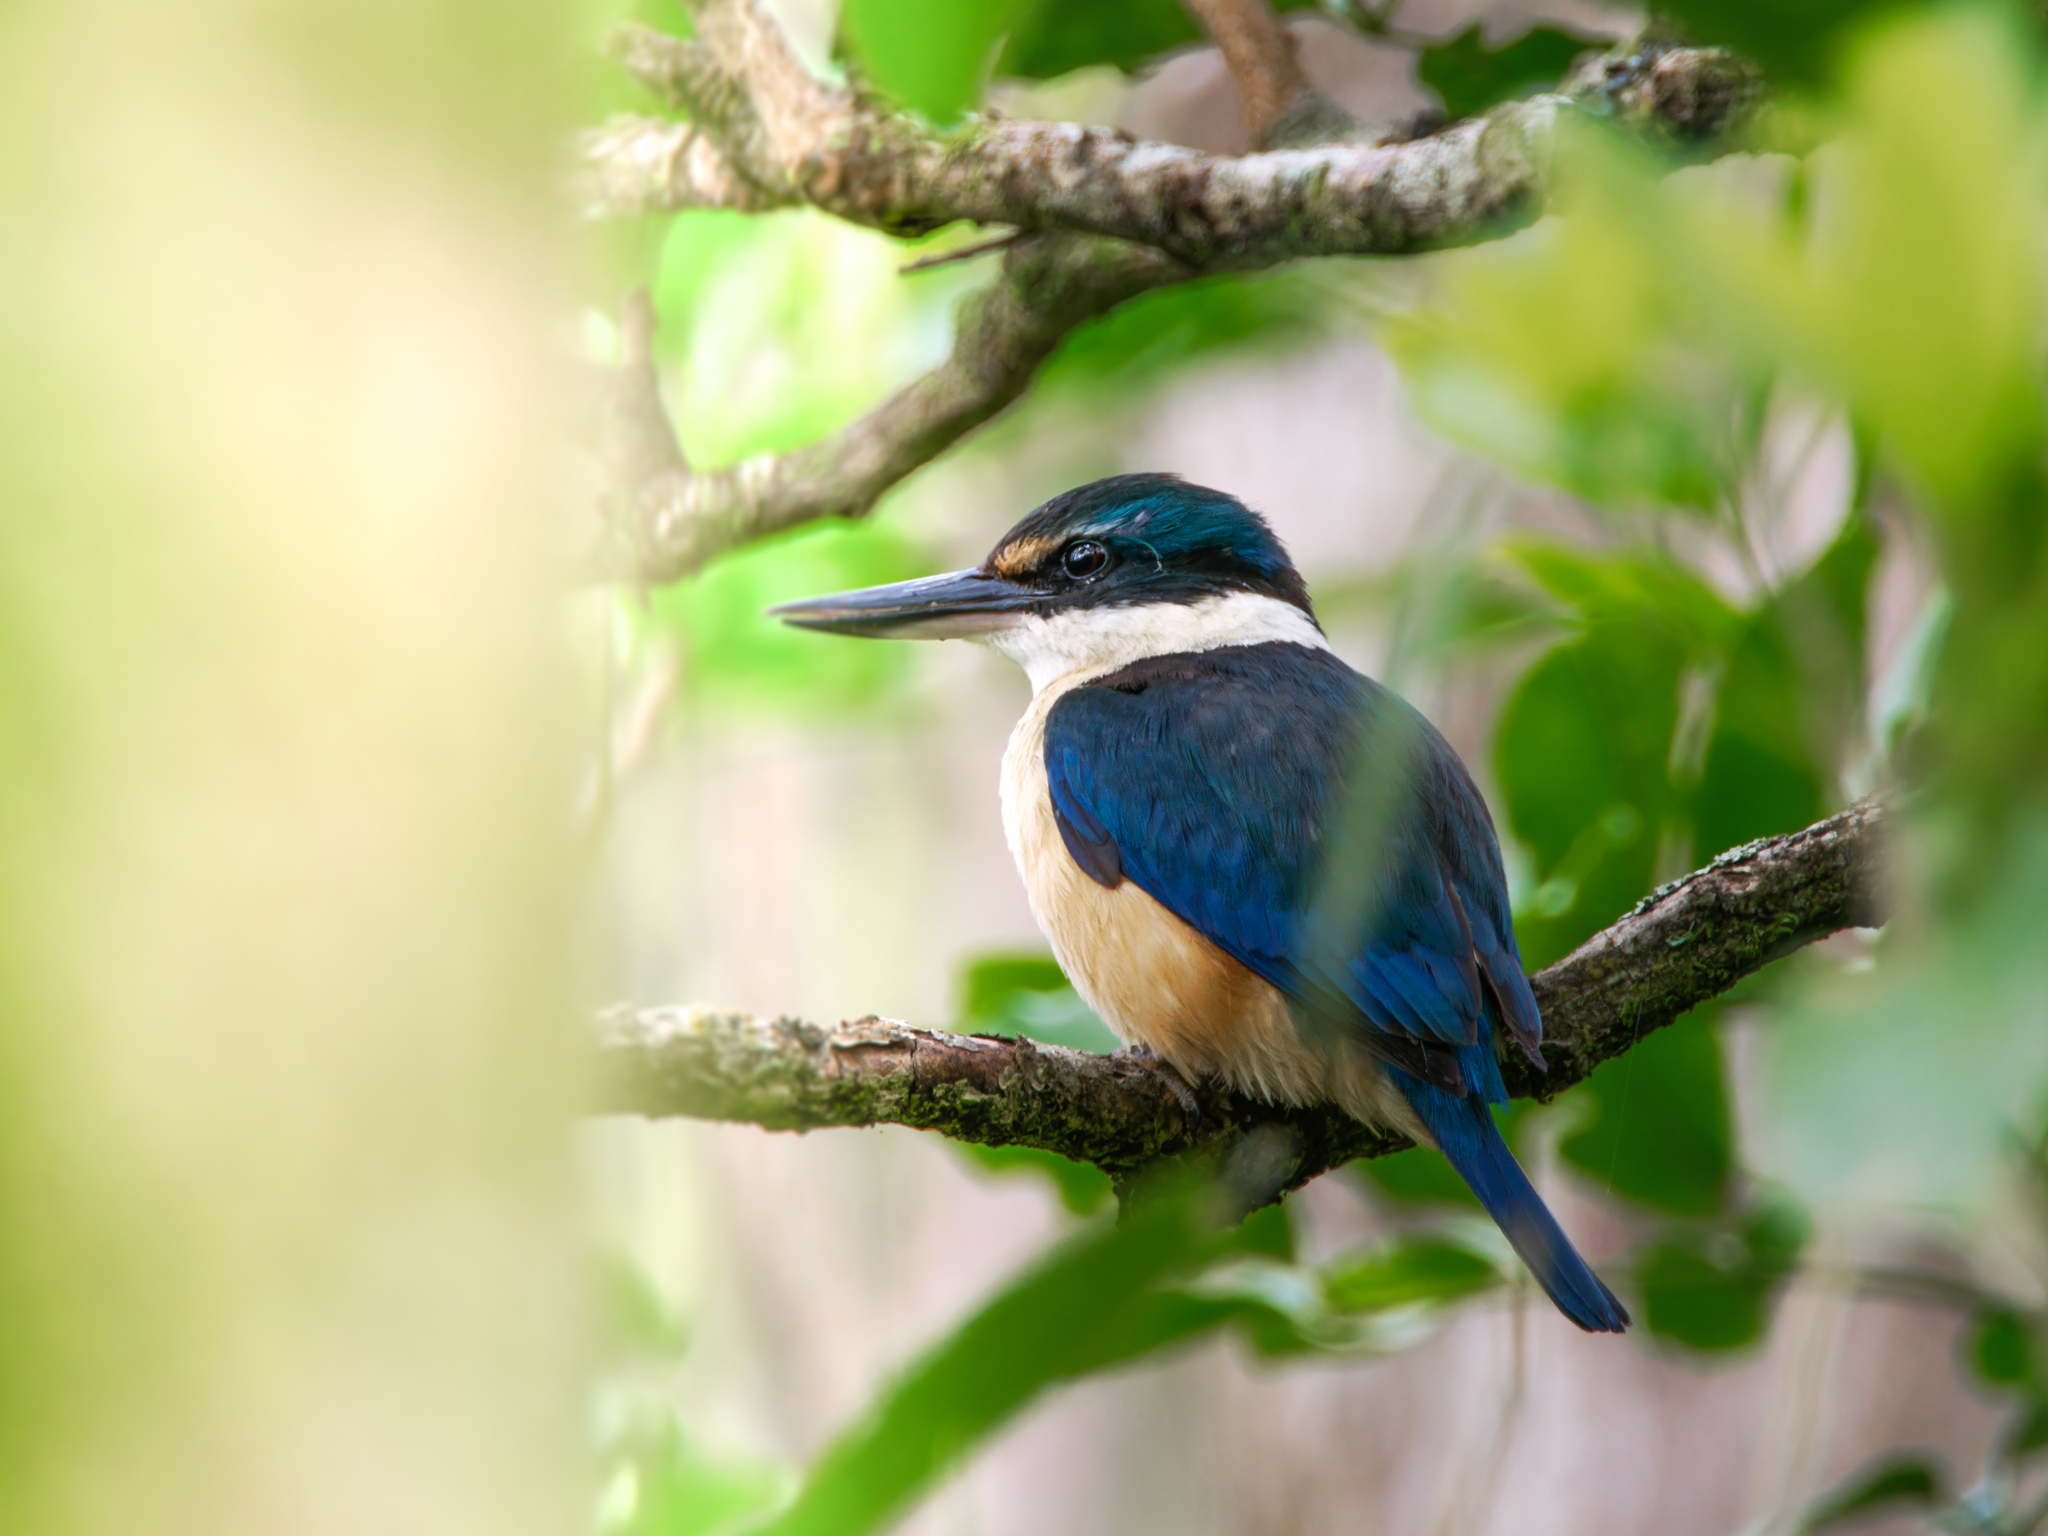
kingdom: Animalia
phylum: Chordata
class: Aves
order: Coraciiformes
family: Alcedinidae
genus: Todiramphus
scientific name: Todiramphus sanctus
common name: Sacred kingfisher
